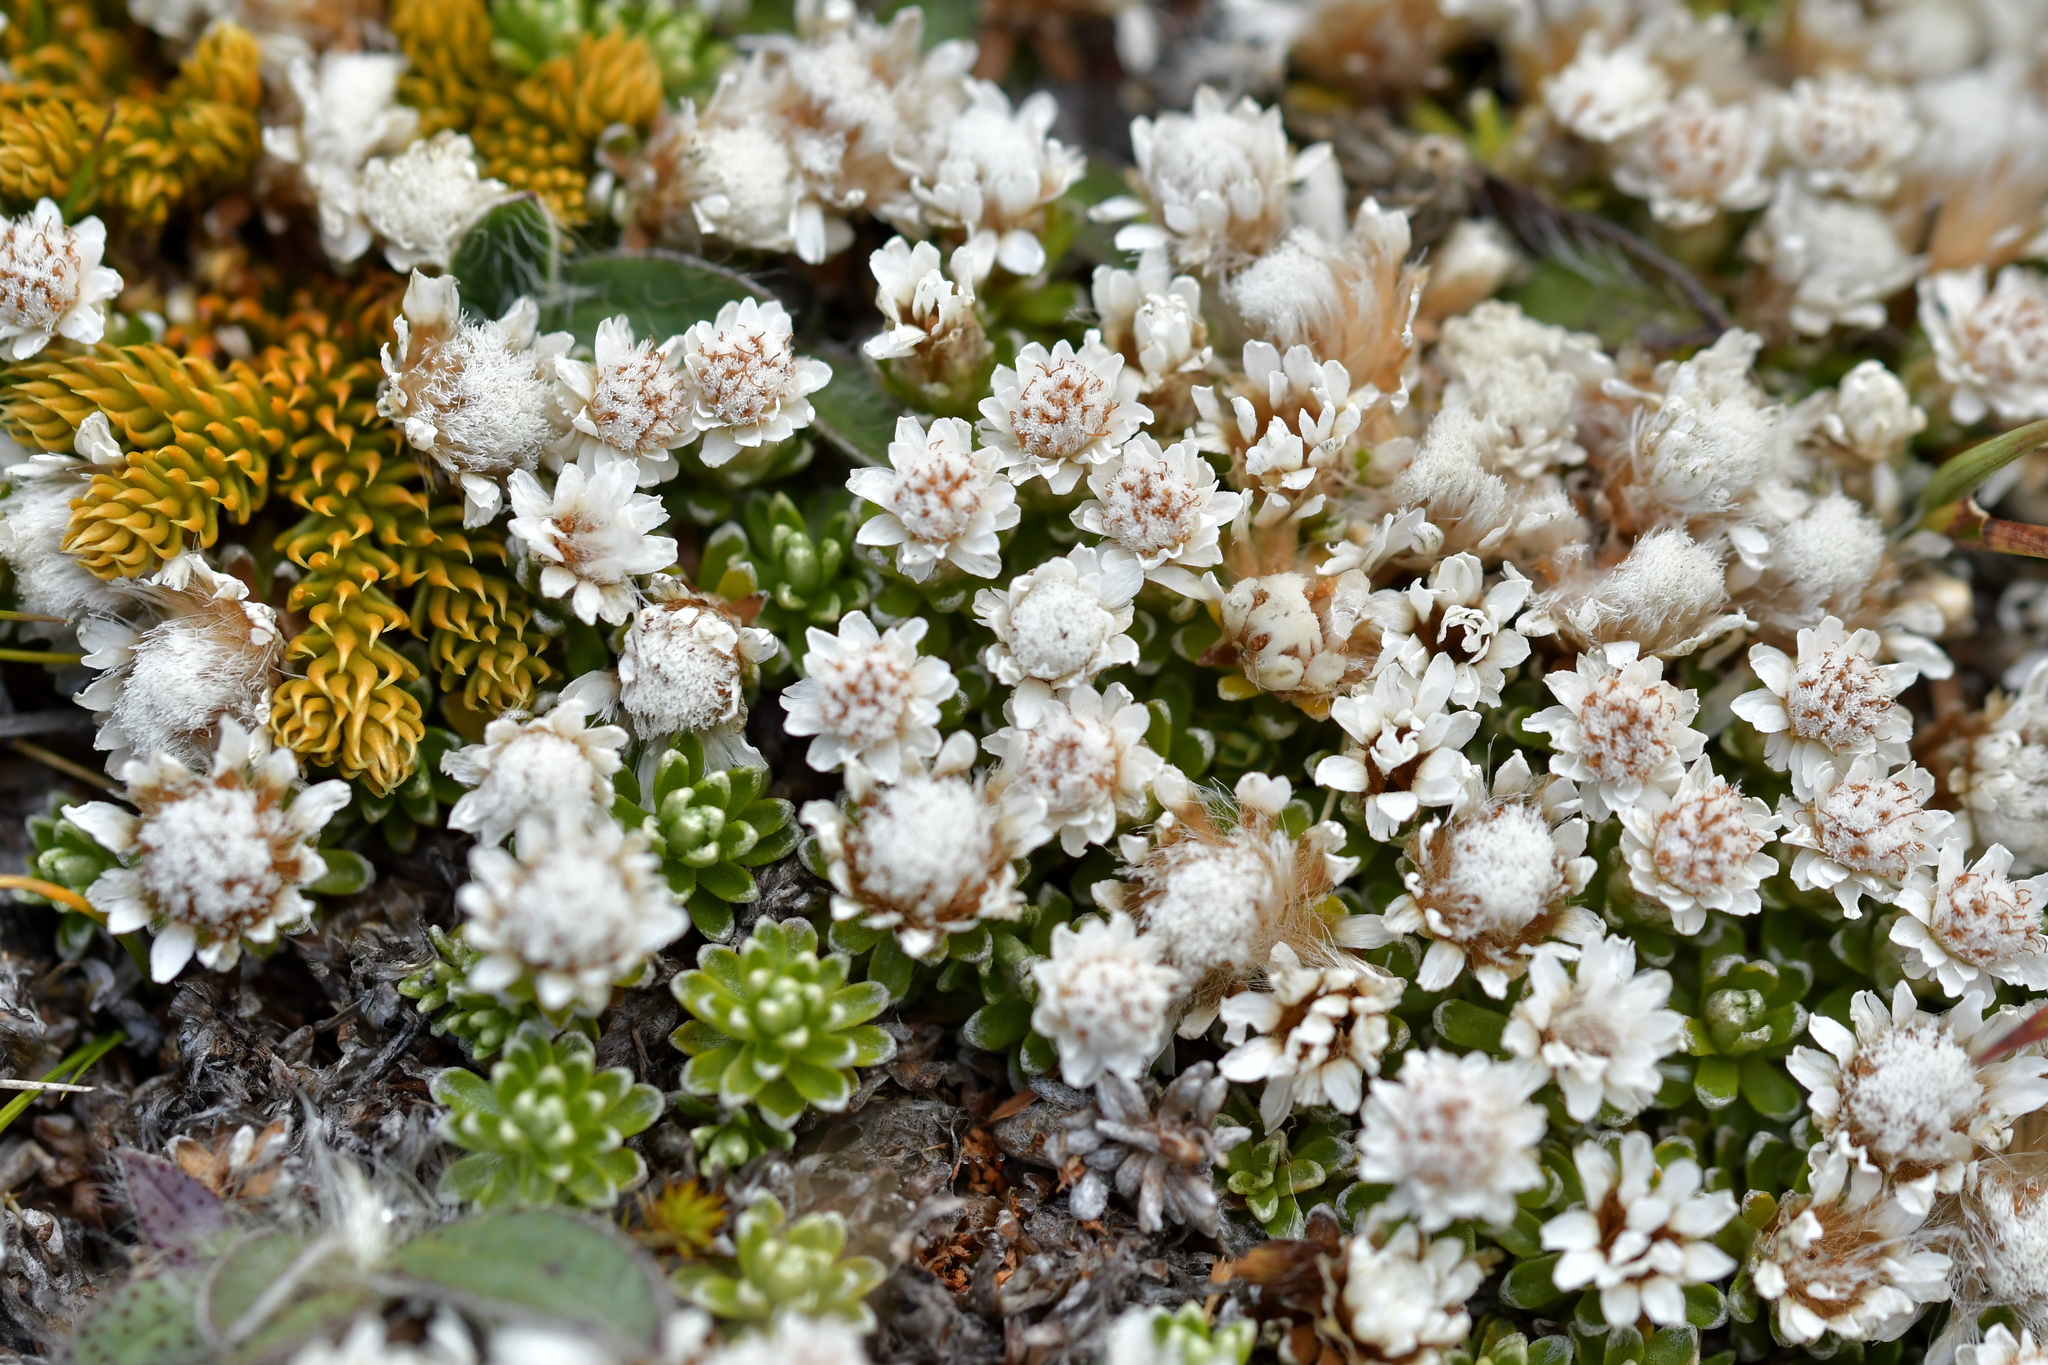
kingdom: Plantae
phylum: Tracheophyta
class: Magnoliopsida
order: Asterales
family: Asteraceae
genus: Raoulia
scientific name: Raoulia subsericea
